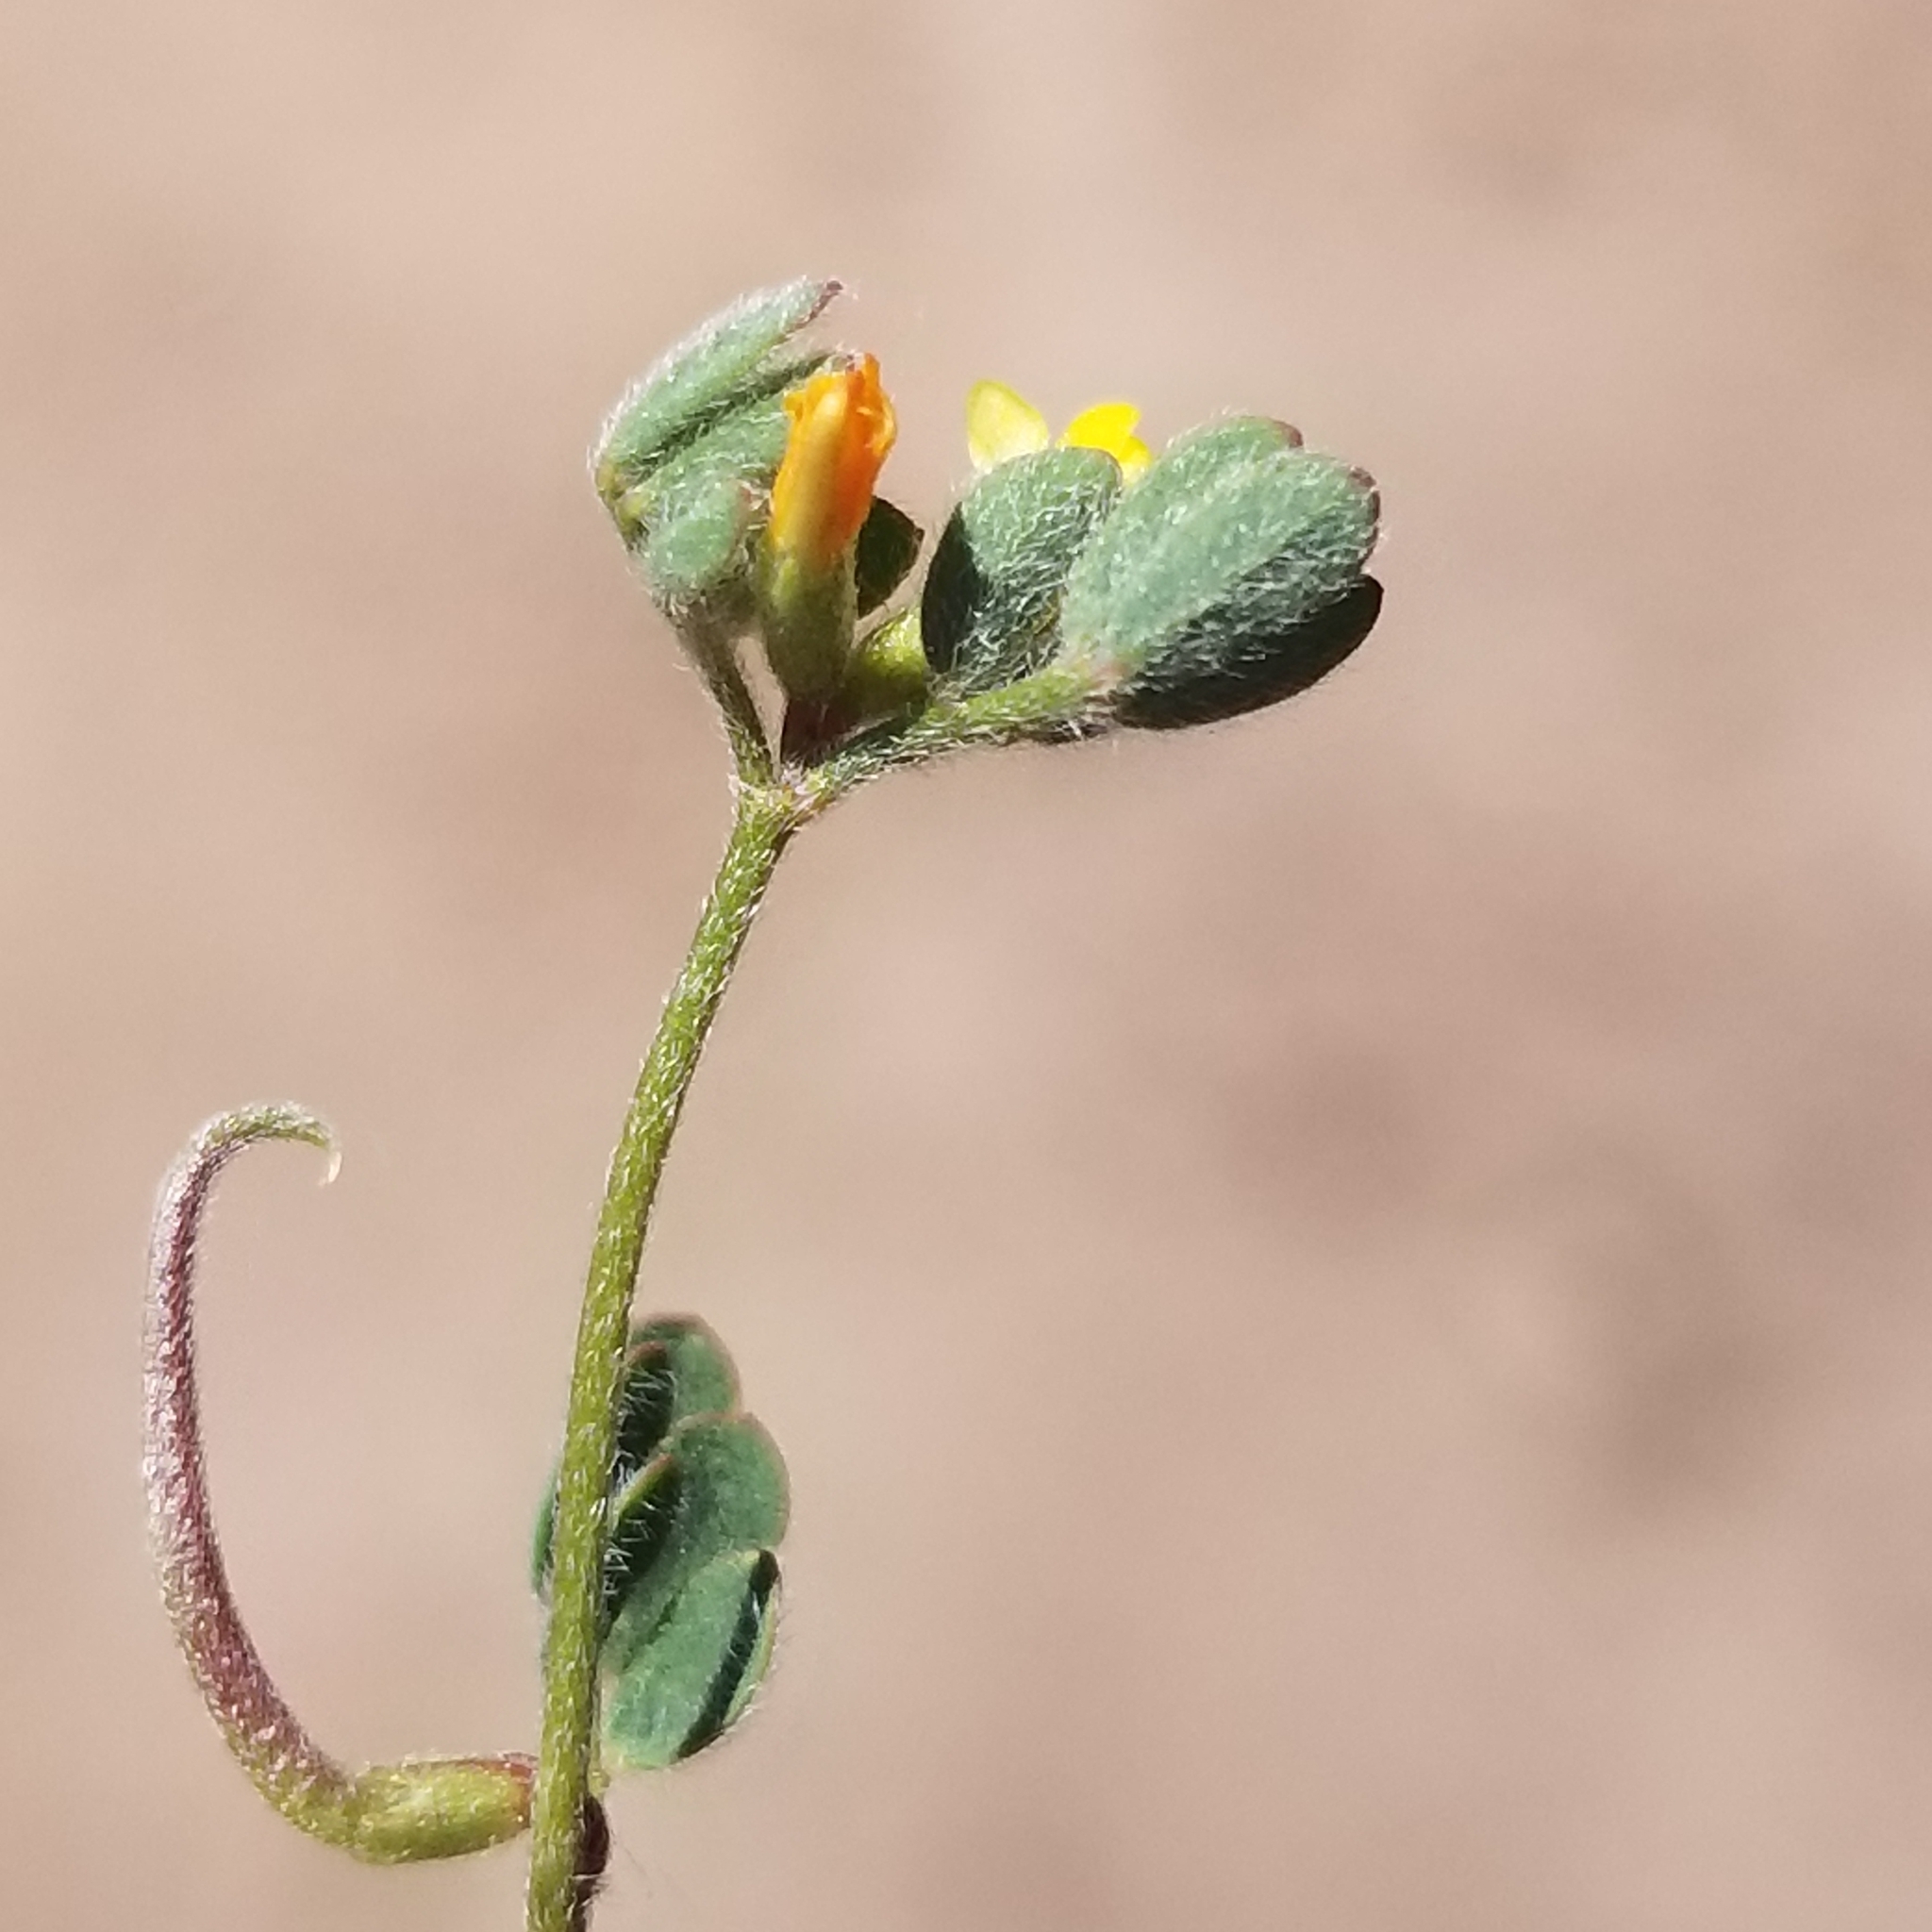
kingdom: Plantae
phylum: Tracheophyta
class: Magnoliopsida
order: Fabales
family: Fabaceae
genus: Acmispon
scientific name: Acmispon micranthus
